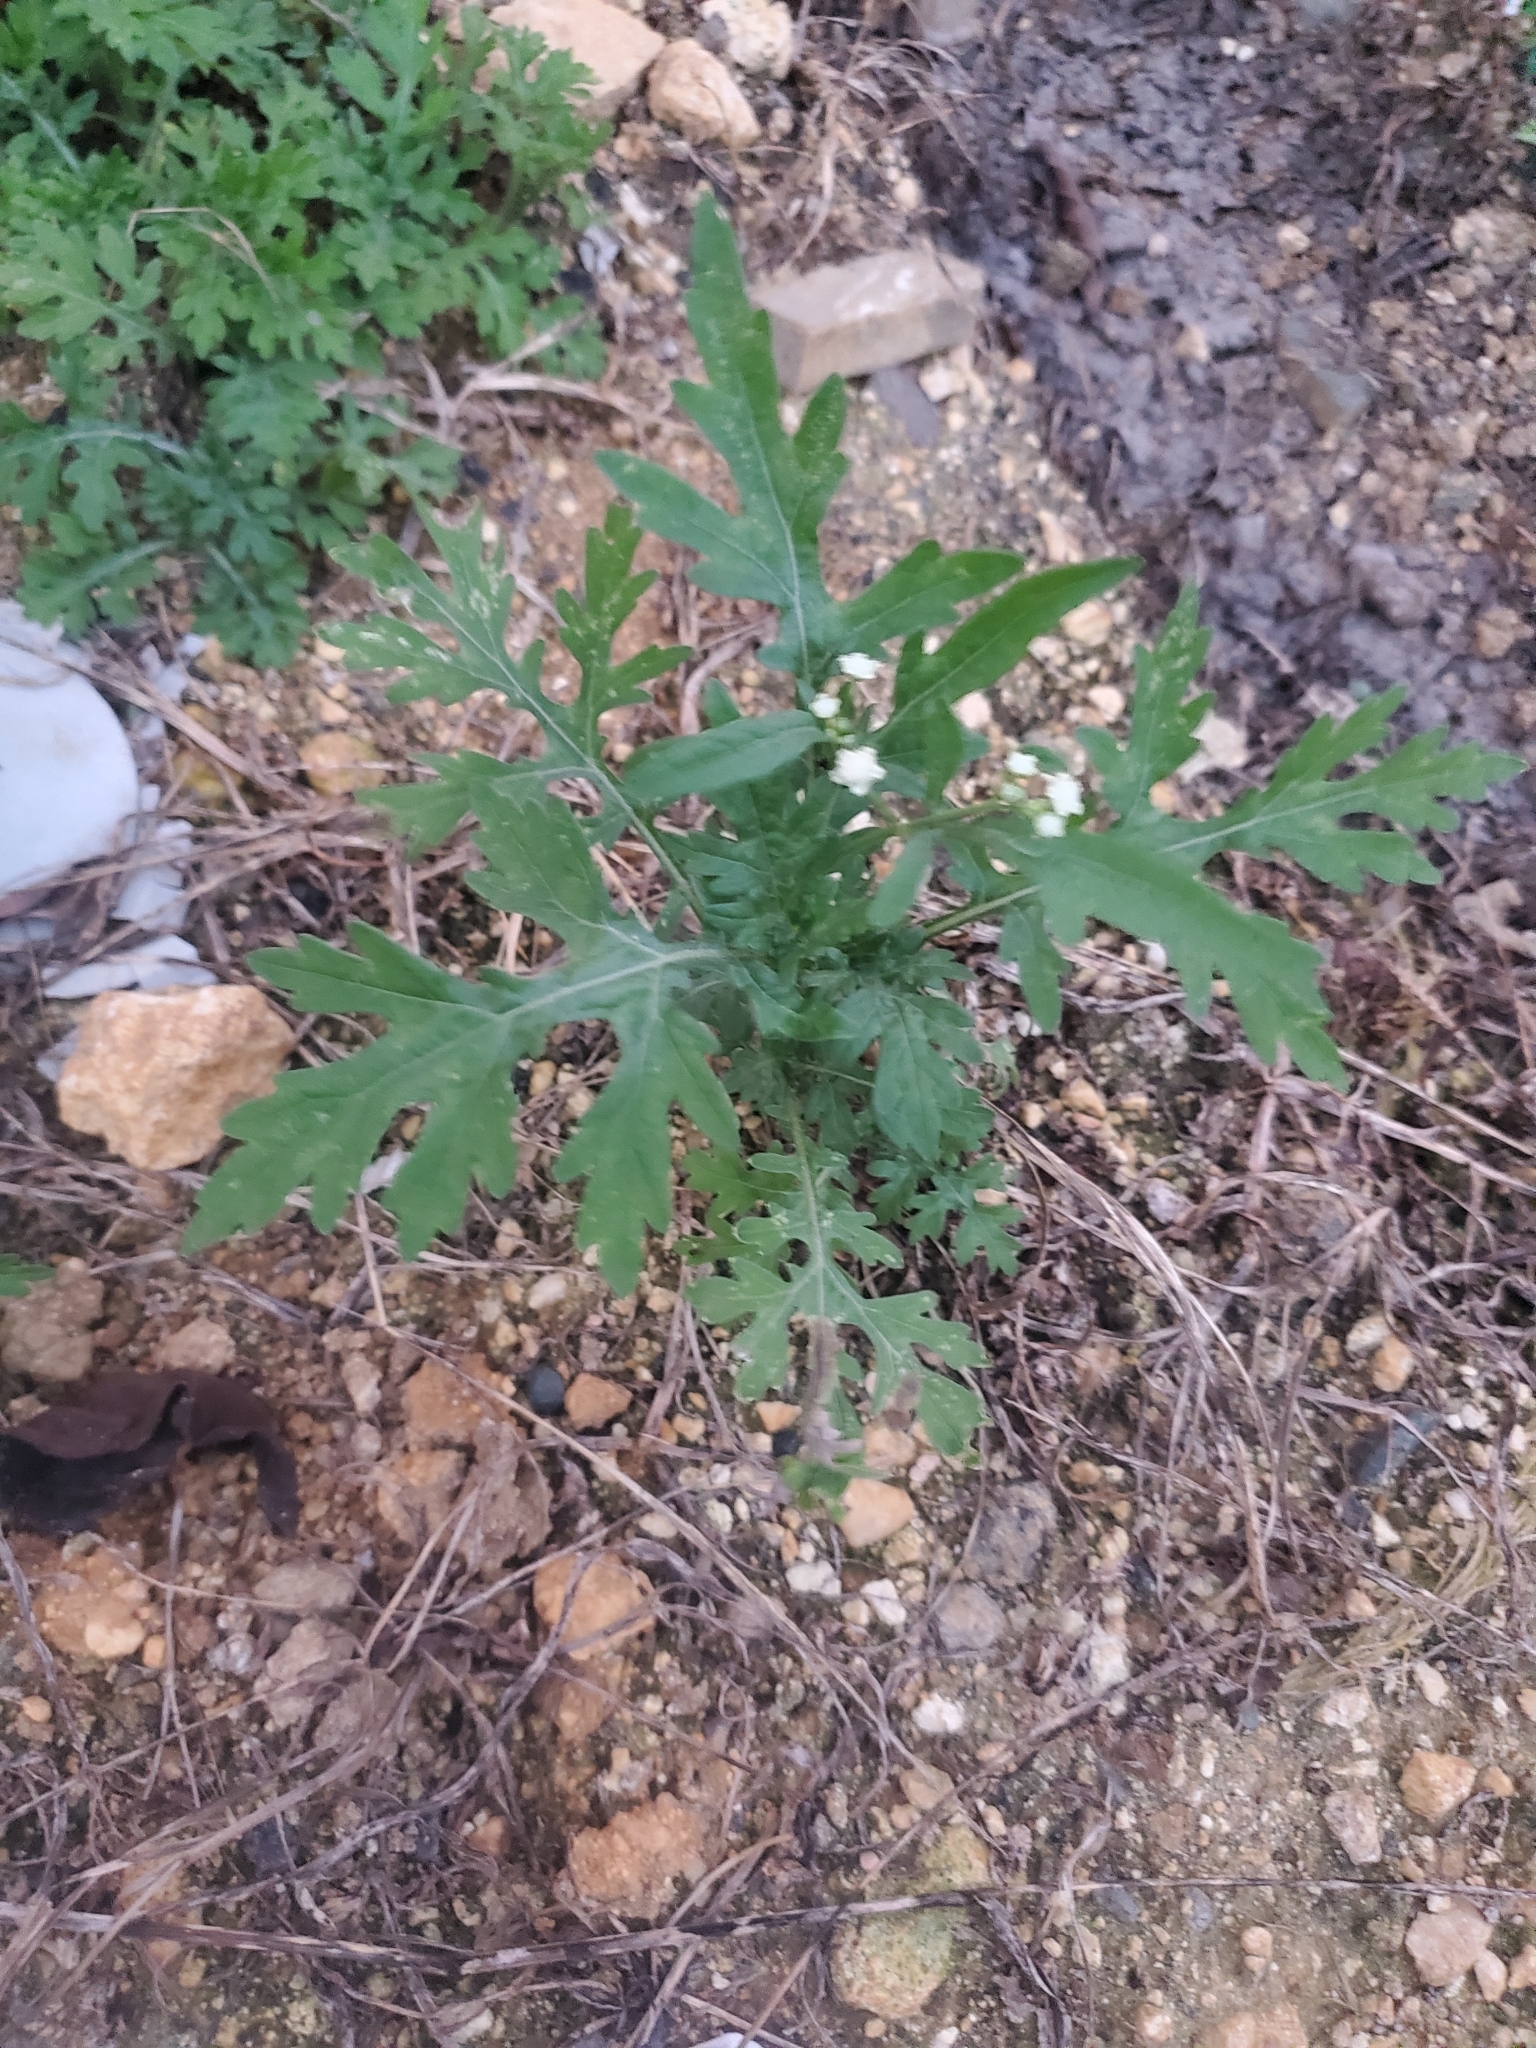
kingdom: Plantae
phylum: Tracheophyta
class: Magnoliopsida
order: Asterales
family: Asteraceae
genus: Parthenium
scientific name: Parthenium hysterophorus
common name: Santa maria feverfew
